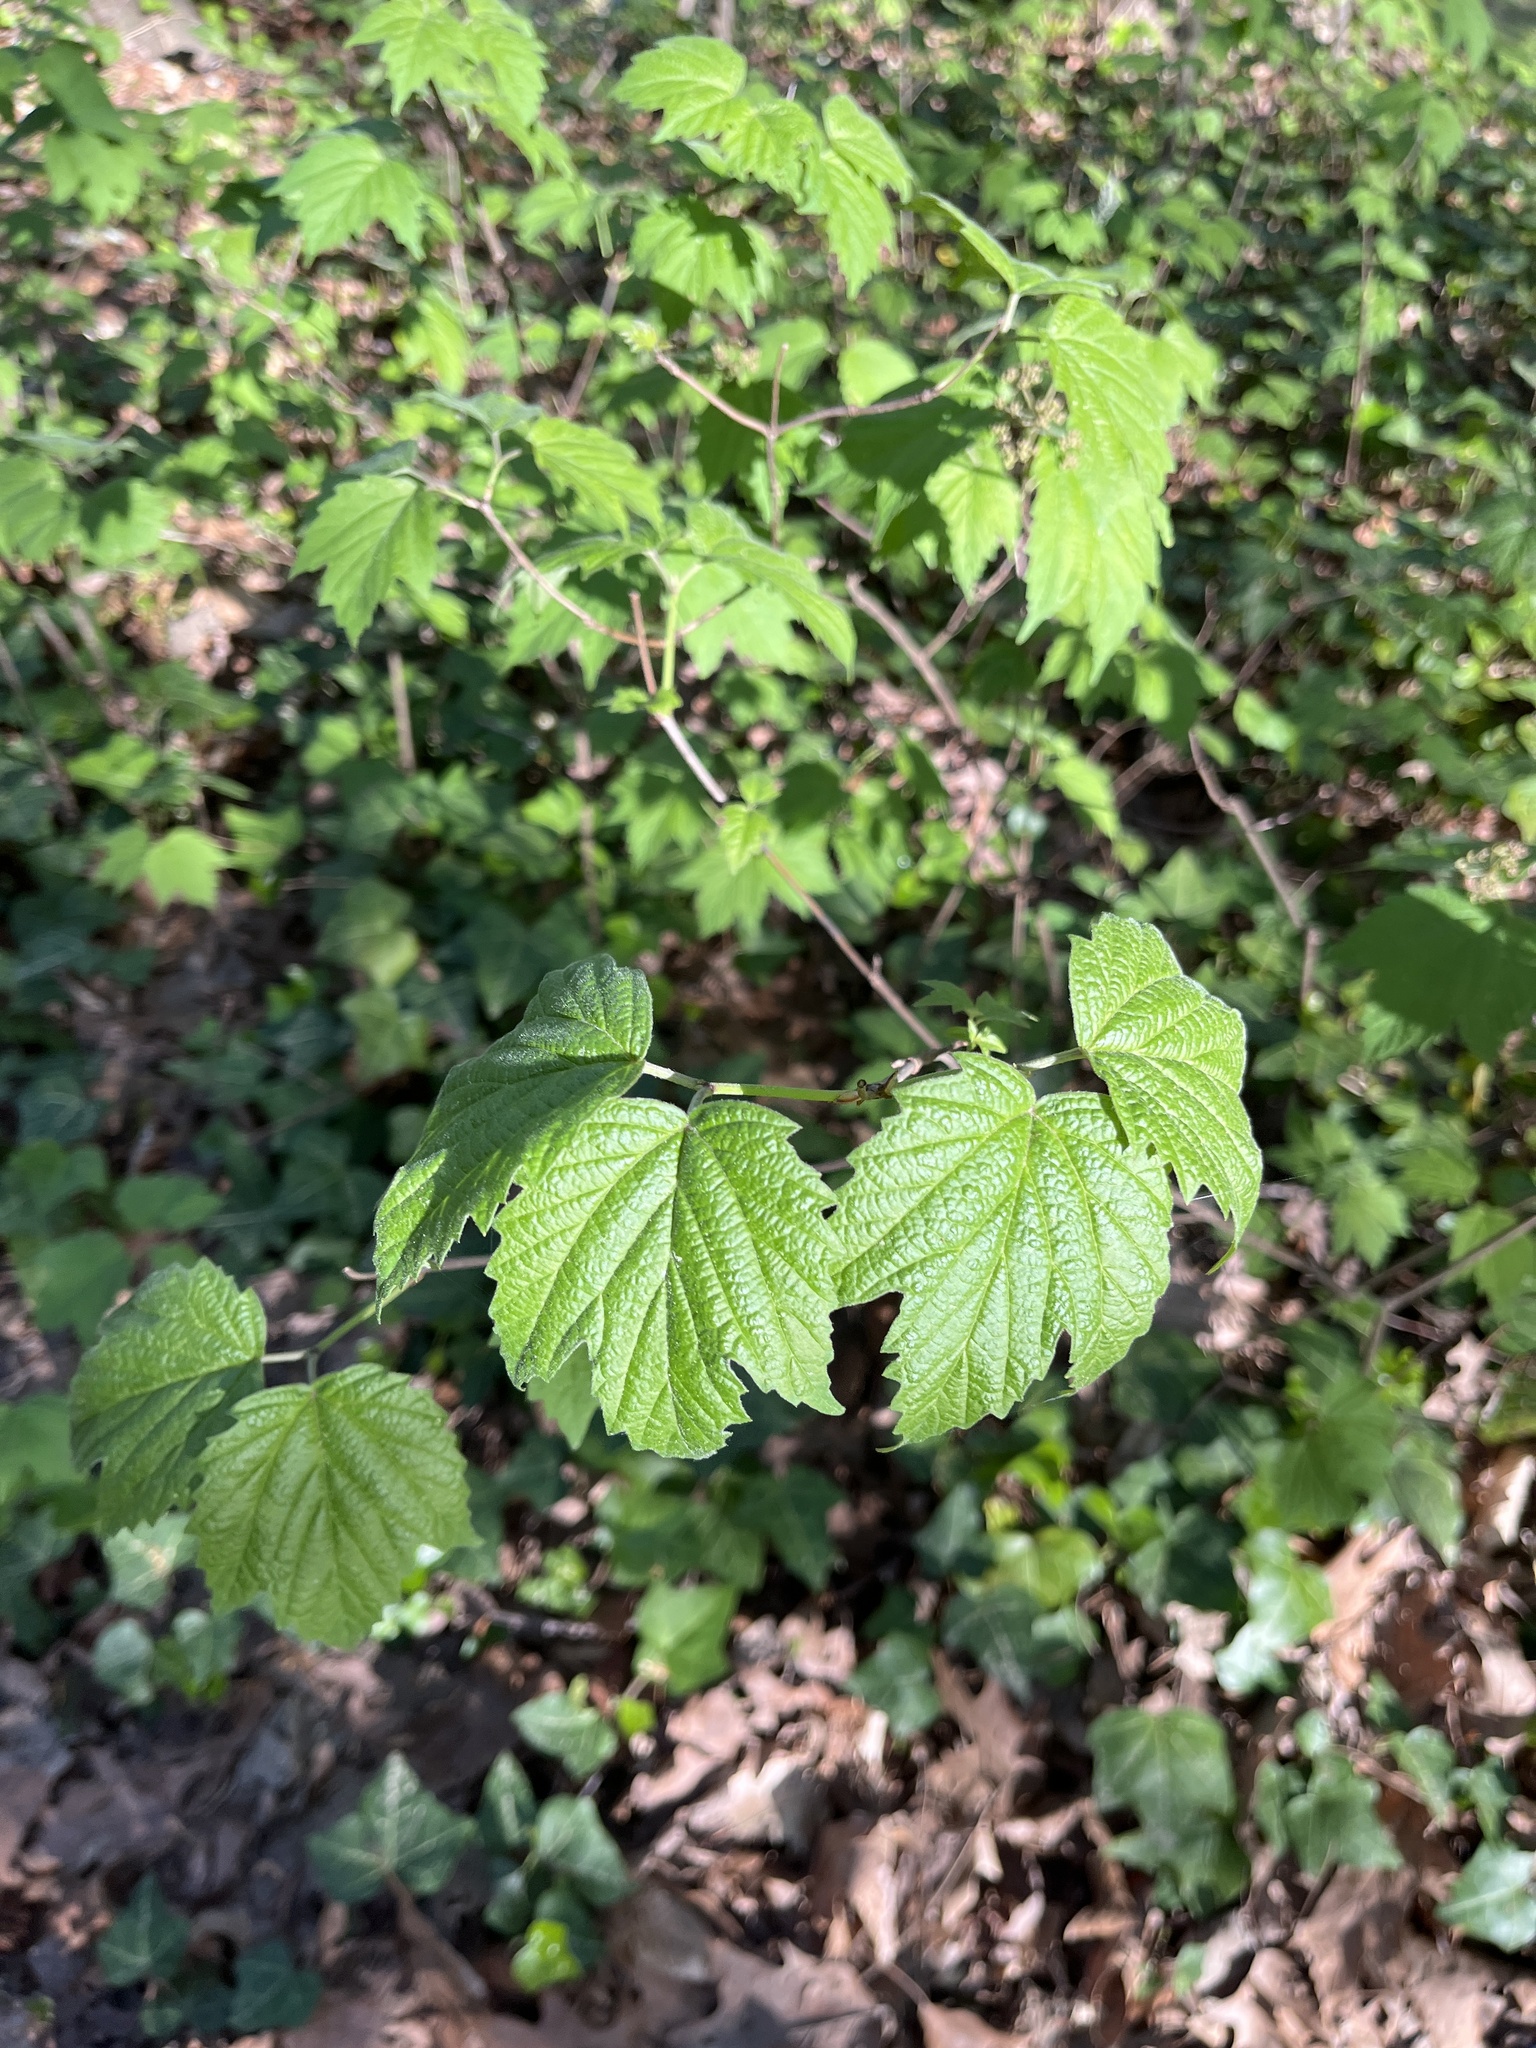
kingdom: Plantae
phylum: Tracheophyta
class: Magnoliopsida
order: Dipsacales
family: Viburnaceae
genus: Viburnum
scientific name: Viburnum acerifolium
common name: Dockmackie
